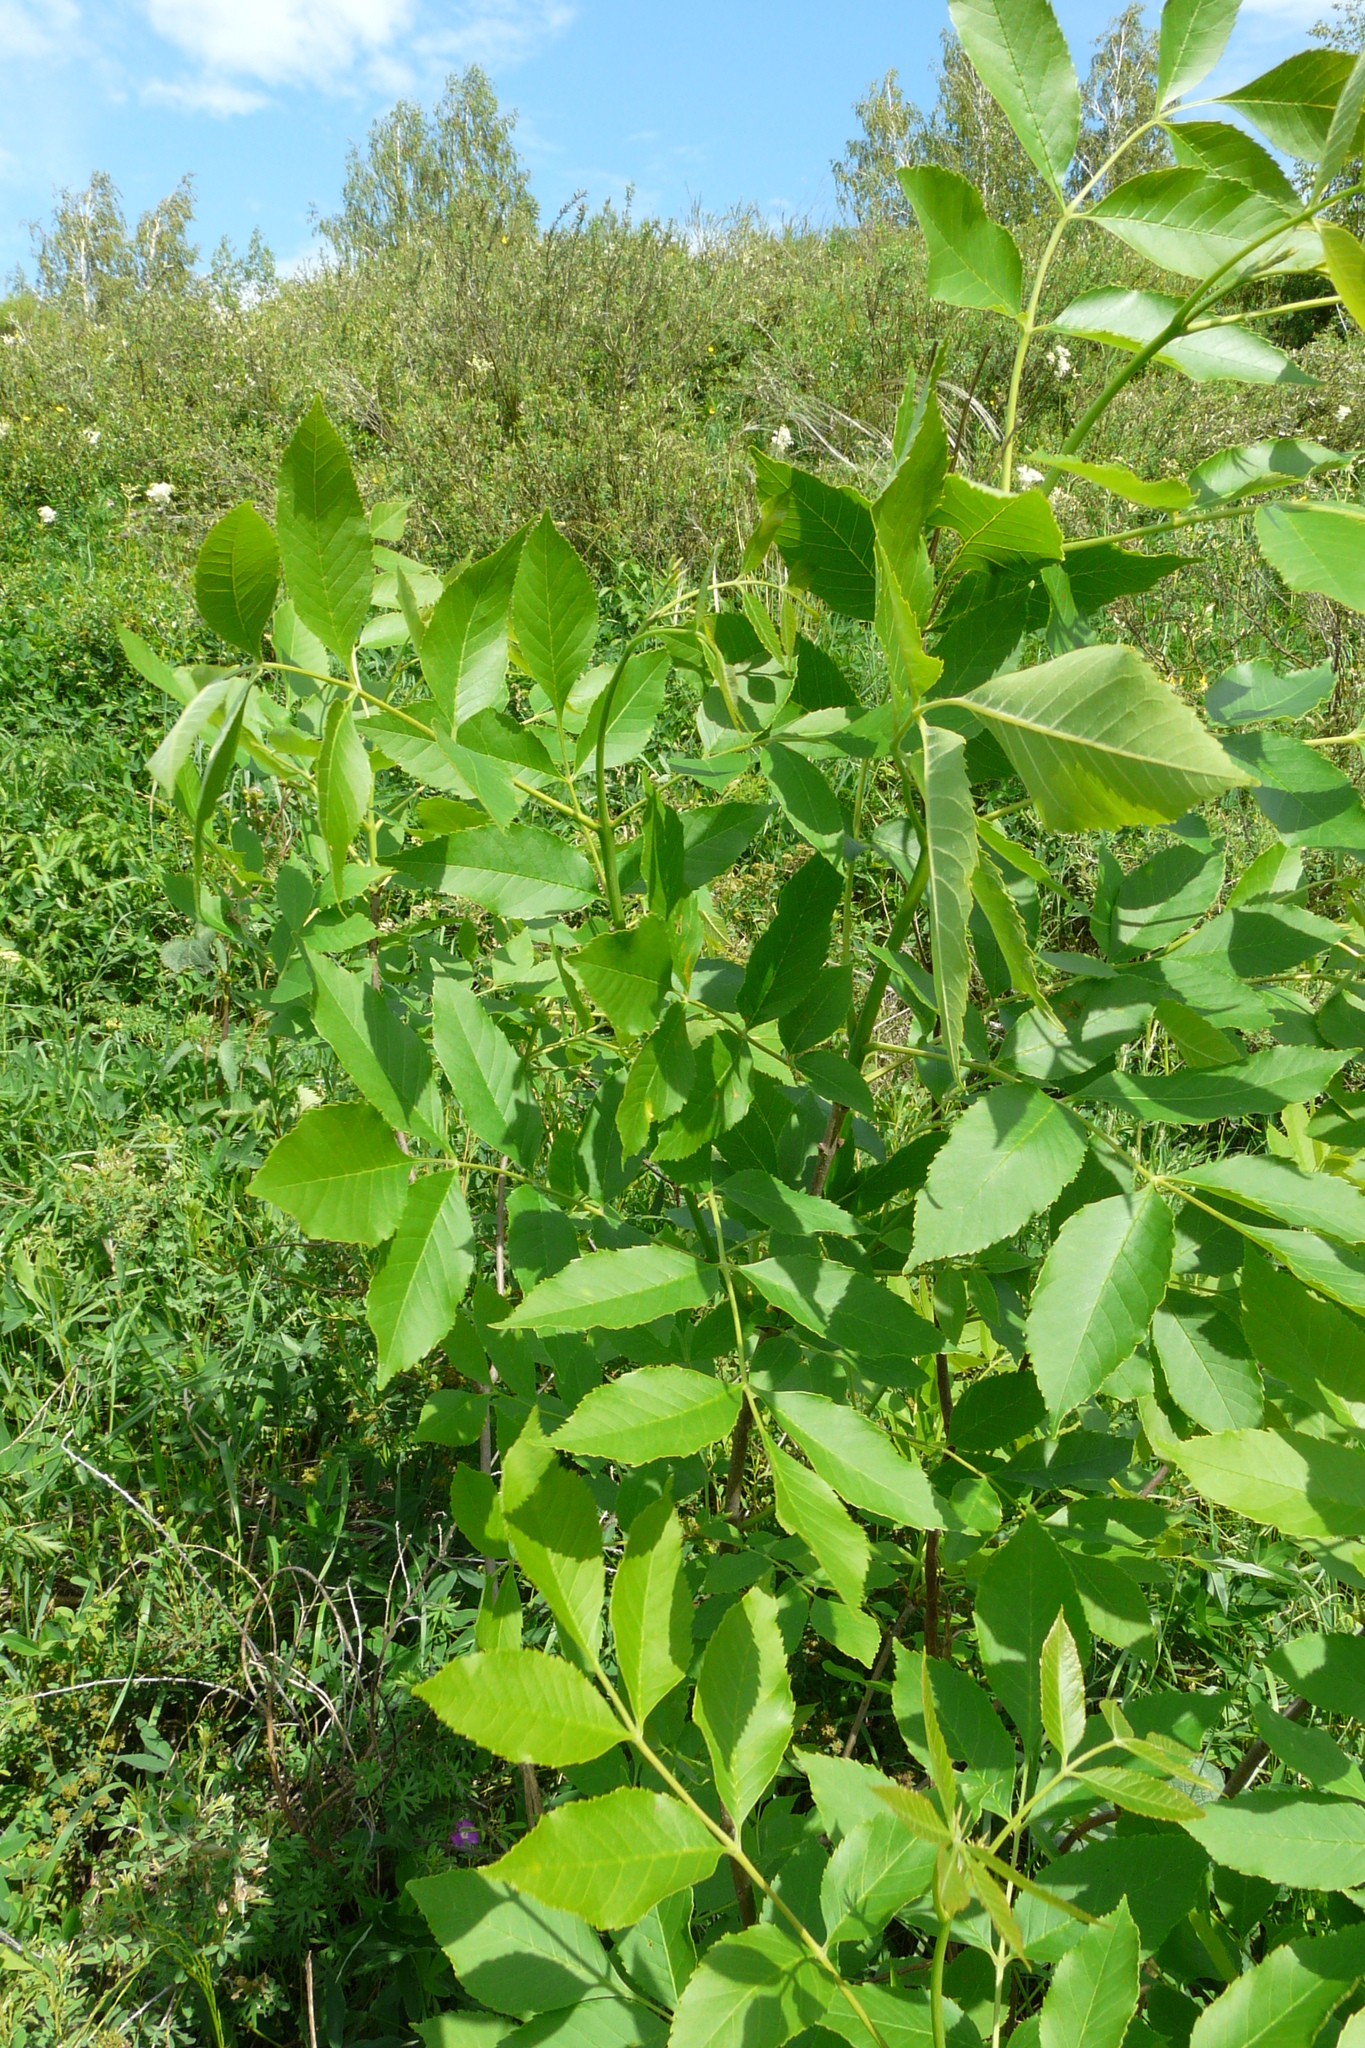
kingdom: Plantae
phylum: Tracheophyta
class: Magnoliopsida
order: Lamiales
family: Oleaceae
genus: Fraxinus
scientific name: Fraxinus pennsylvanica
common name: Green ash
